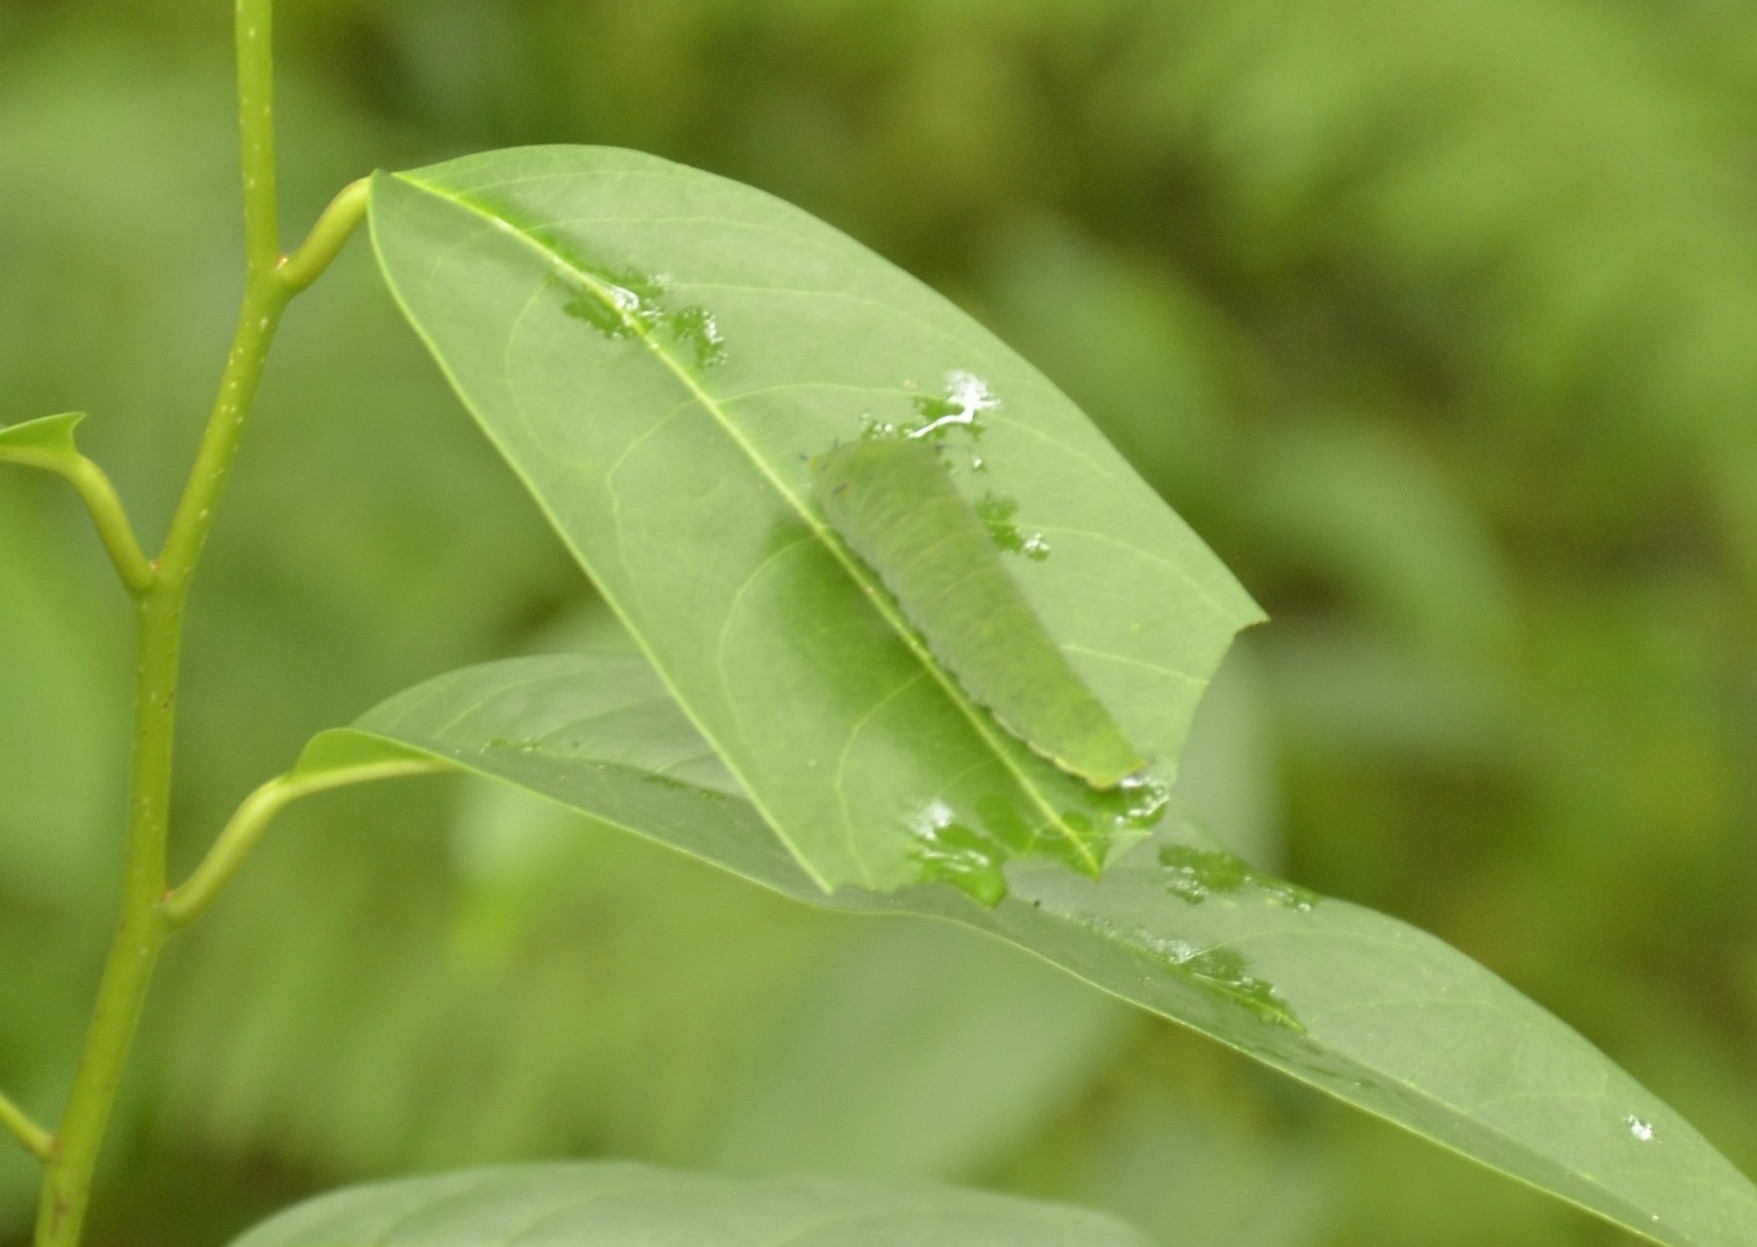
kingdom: Animalia
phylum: Arthropoda
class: Insecta
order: Lepidoptera
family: Papilionidae
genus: Graphium
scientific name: Graphium agamemnon
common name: Tailed jay
